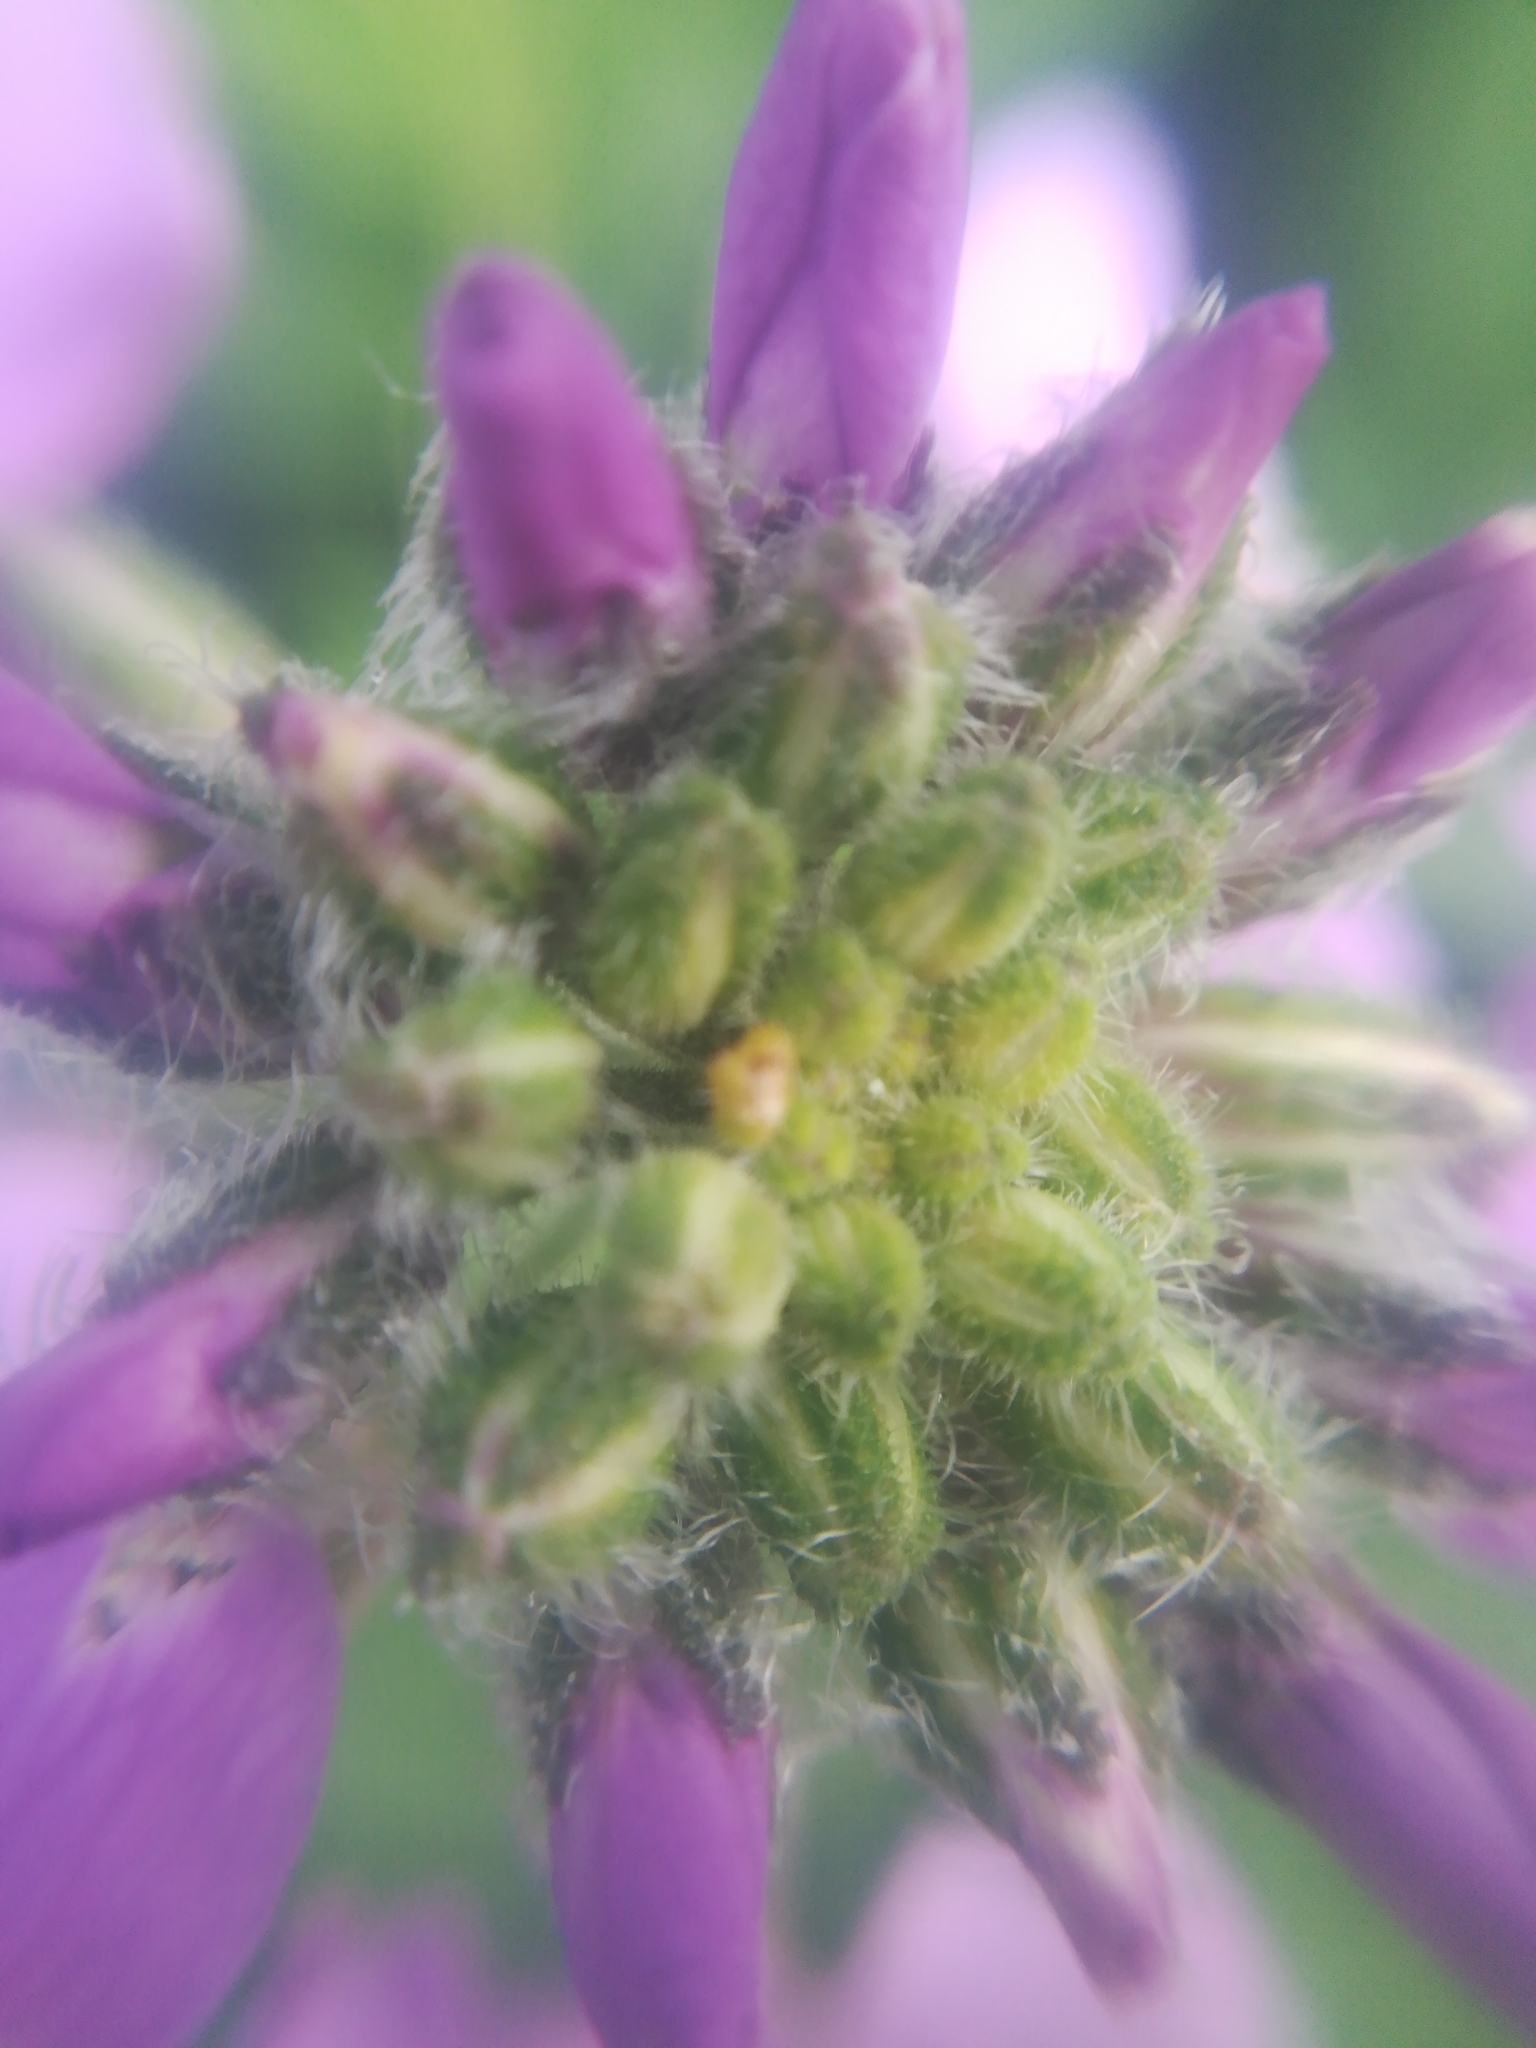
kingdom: Plantae
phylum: Tracheophyta
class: Magnoliopsida
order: Brassicales
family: Brassicaceae
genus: Hesperis
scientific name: Hesperis matronalis
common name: Dame's-violet
